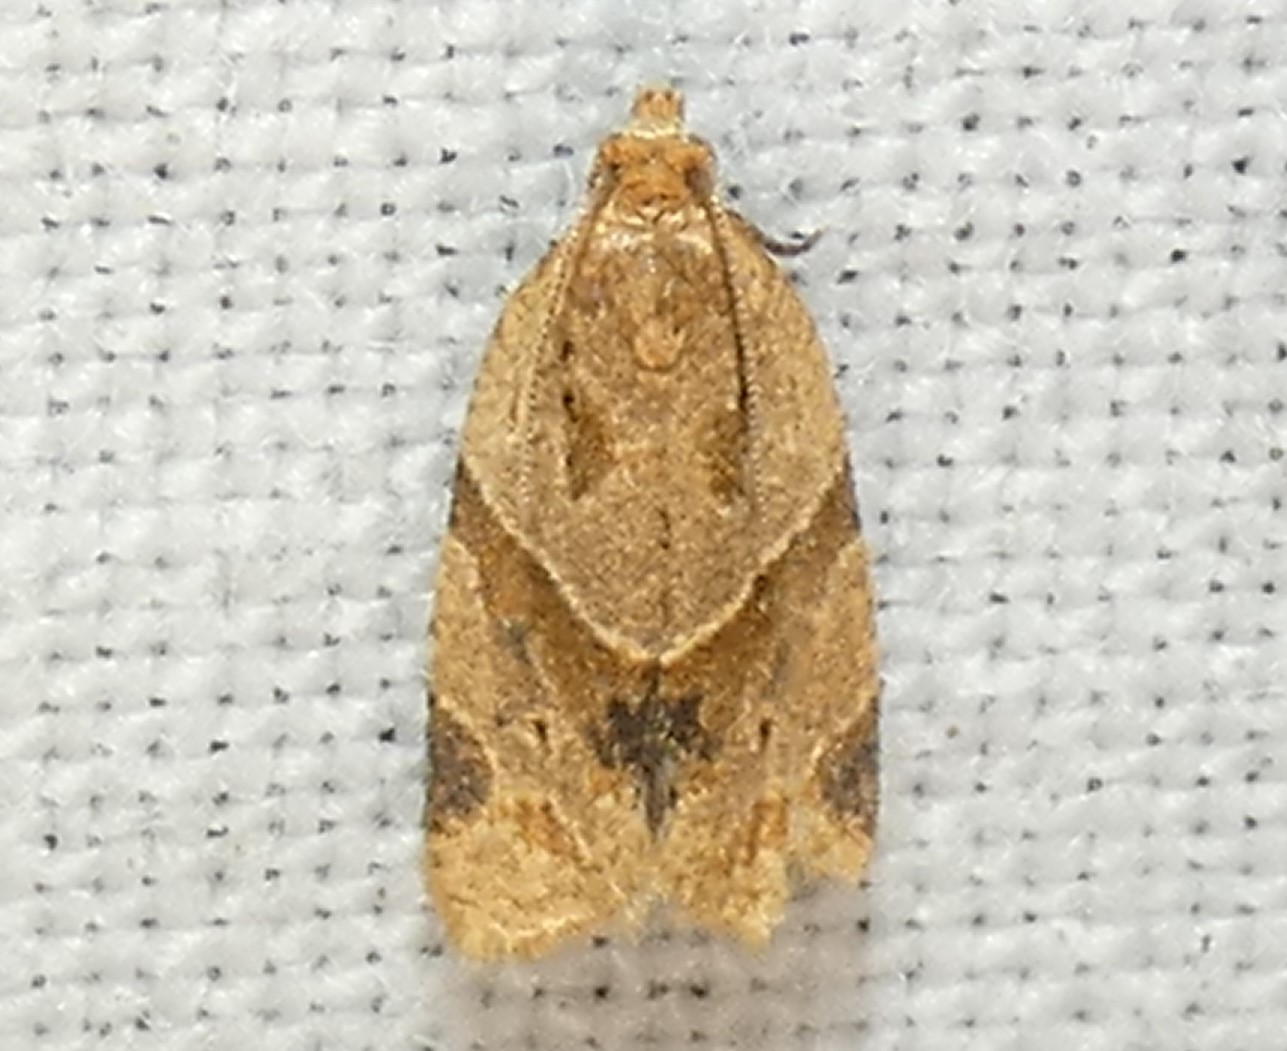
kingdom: Animalia
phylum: Arthropoda
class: Insecta
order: Lepidoptera
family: Tortricidae
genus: Clepsis
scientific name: Clepsis peritana
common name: Garden tortrix
